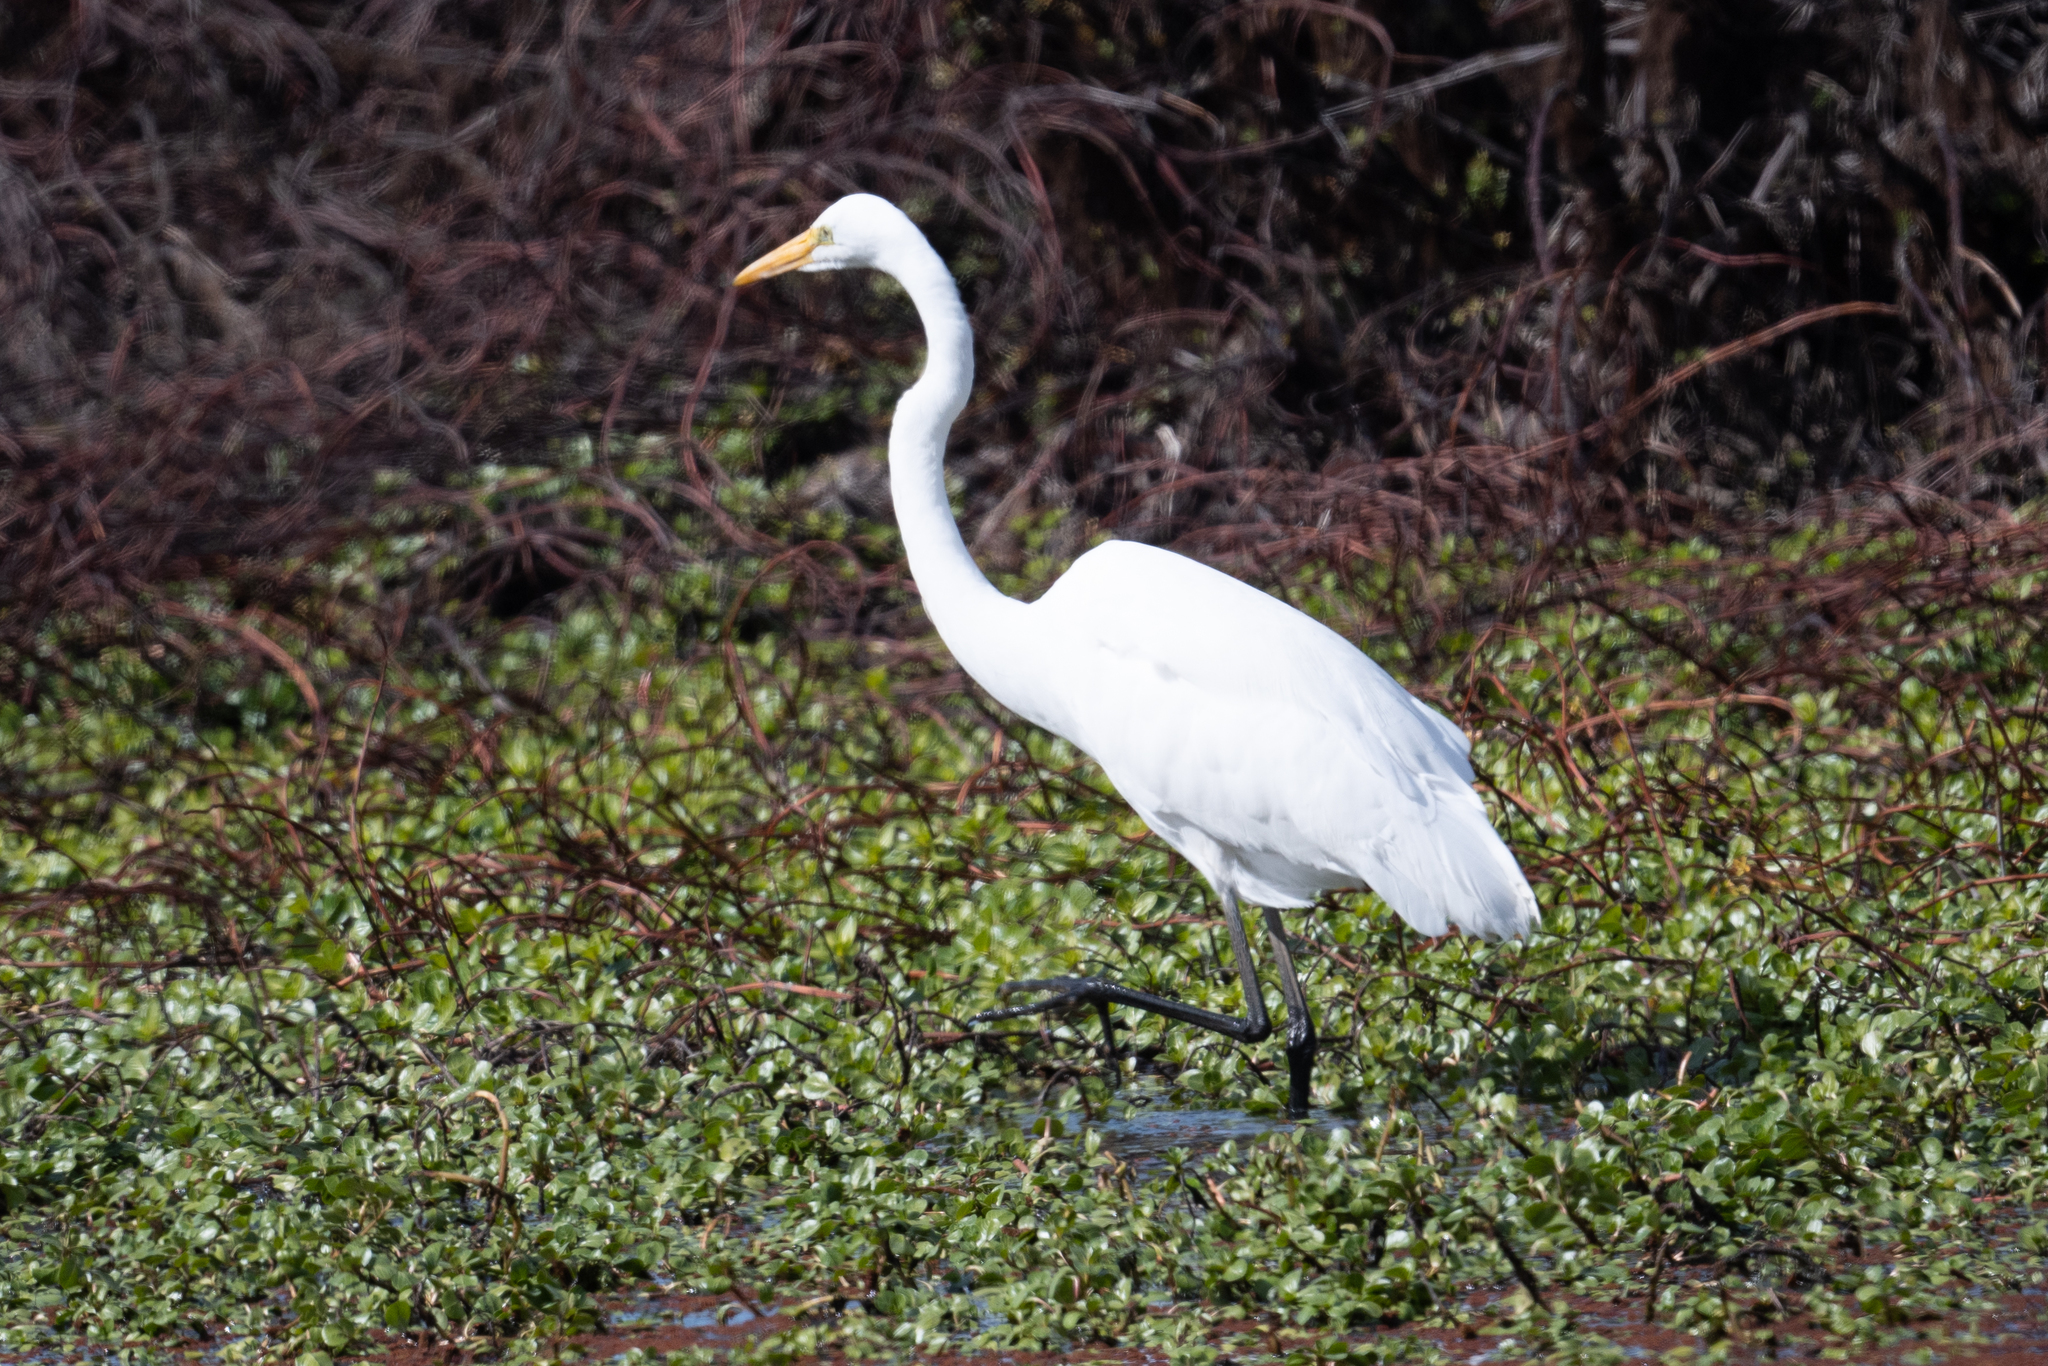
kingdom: Animalia
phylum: Chordata
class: Aves
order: Pelecaniformes
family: Ardeidae
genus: Ardea
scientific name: Ardea alba
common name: Great egret
